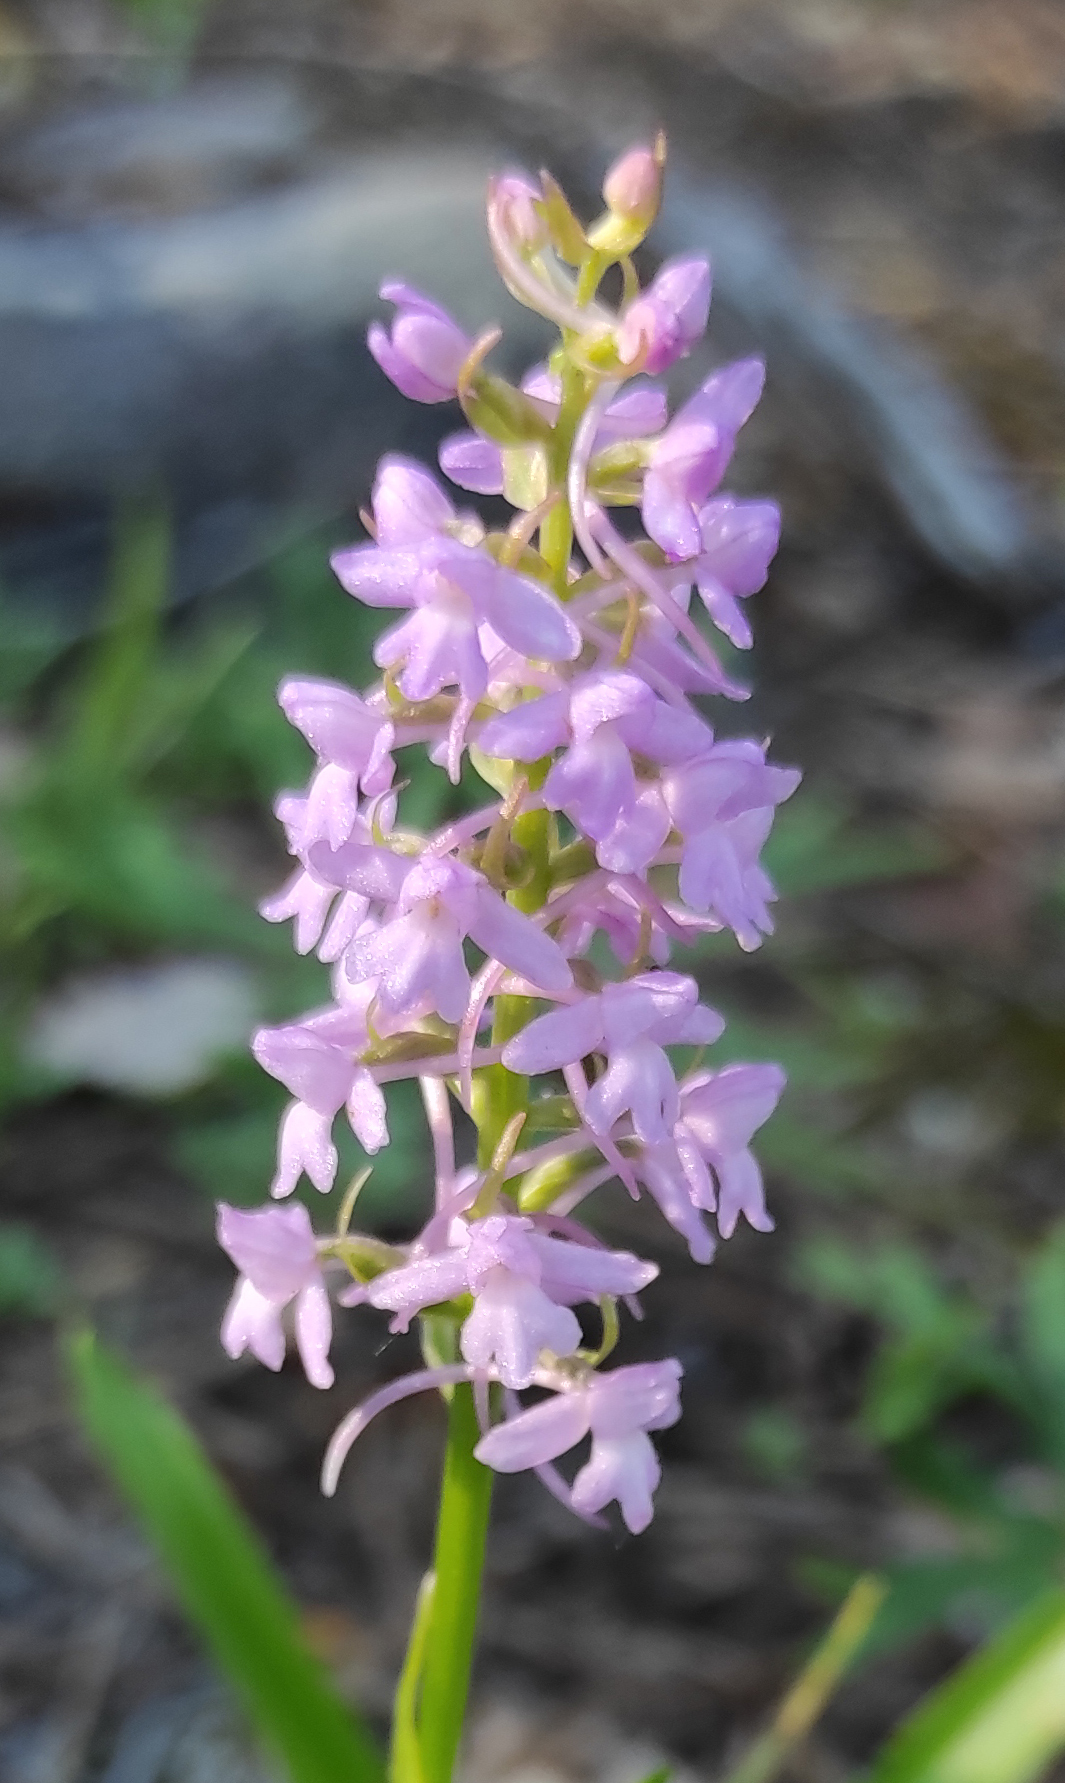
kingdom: Plantae
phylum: Tracheophyta
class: Liliopsida
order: Asparagales
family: Orchidaceae
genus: Gymnadenia
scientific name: Gymnadenia conopsea
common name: Fragrant orchid
